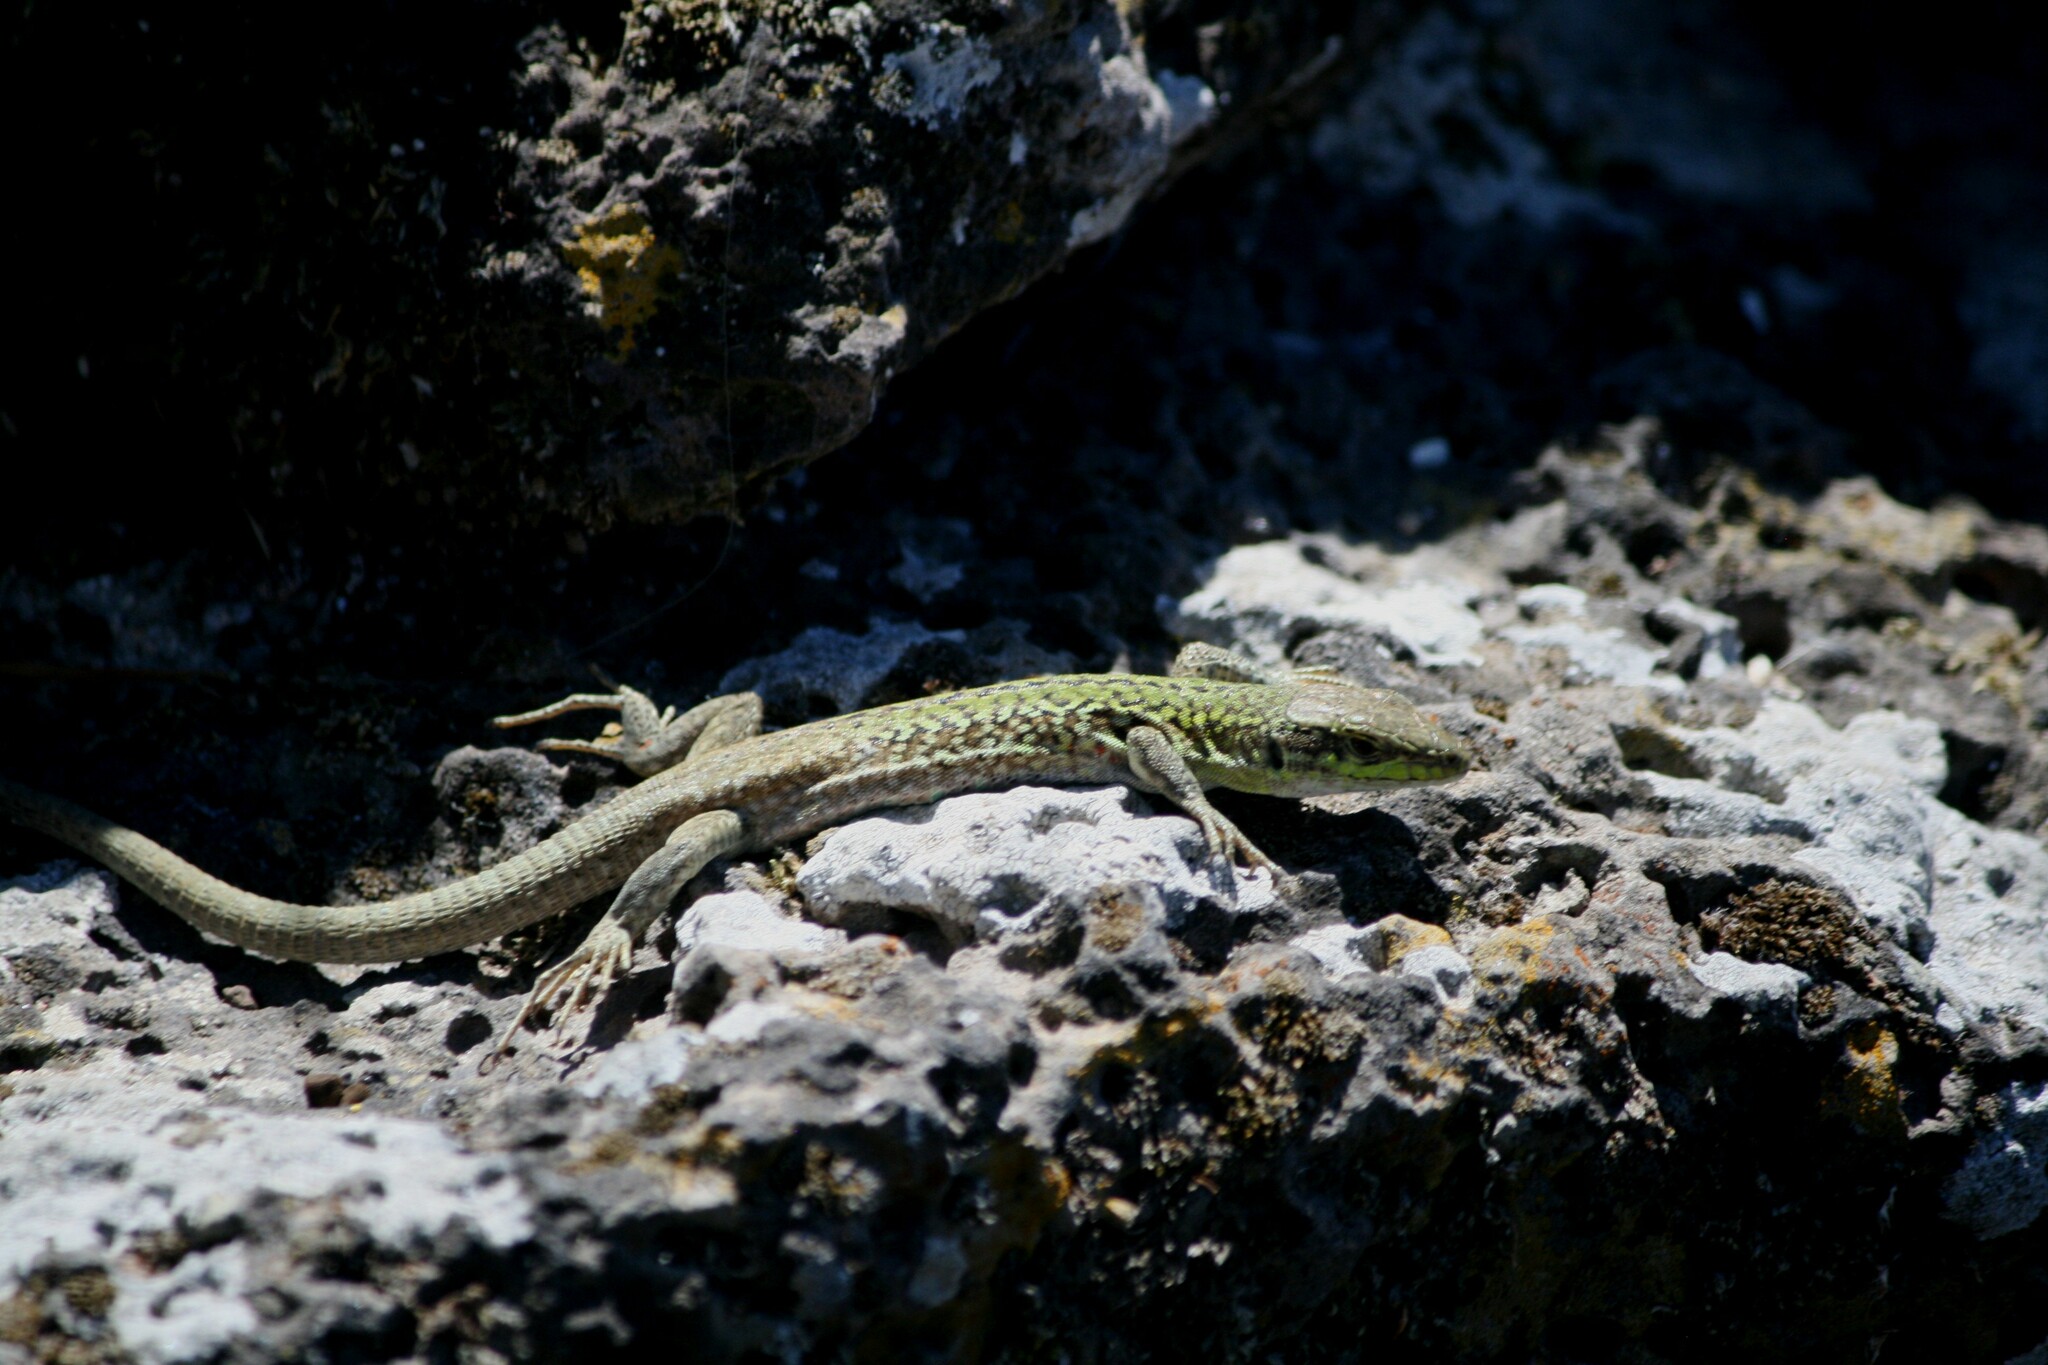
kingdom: Animalia
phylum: Chordata
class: Squamata
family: Lacertidae
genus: Podarcis
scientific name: Podarcis siculus
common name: Italian wall lizard
